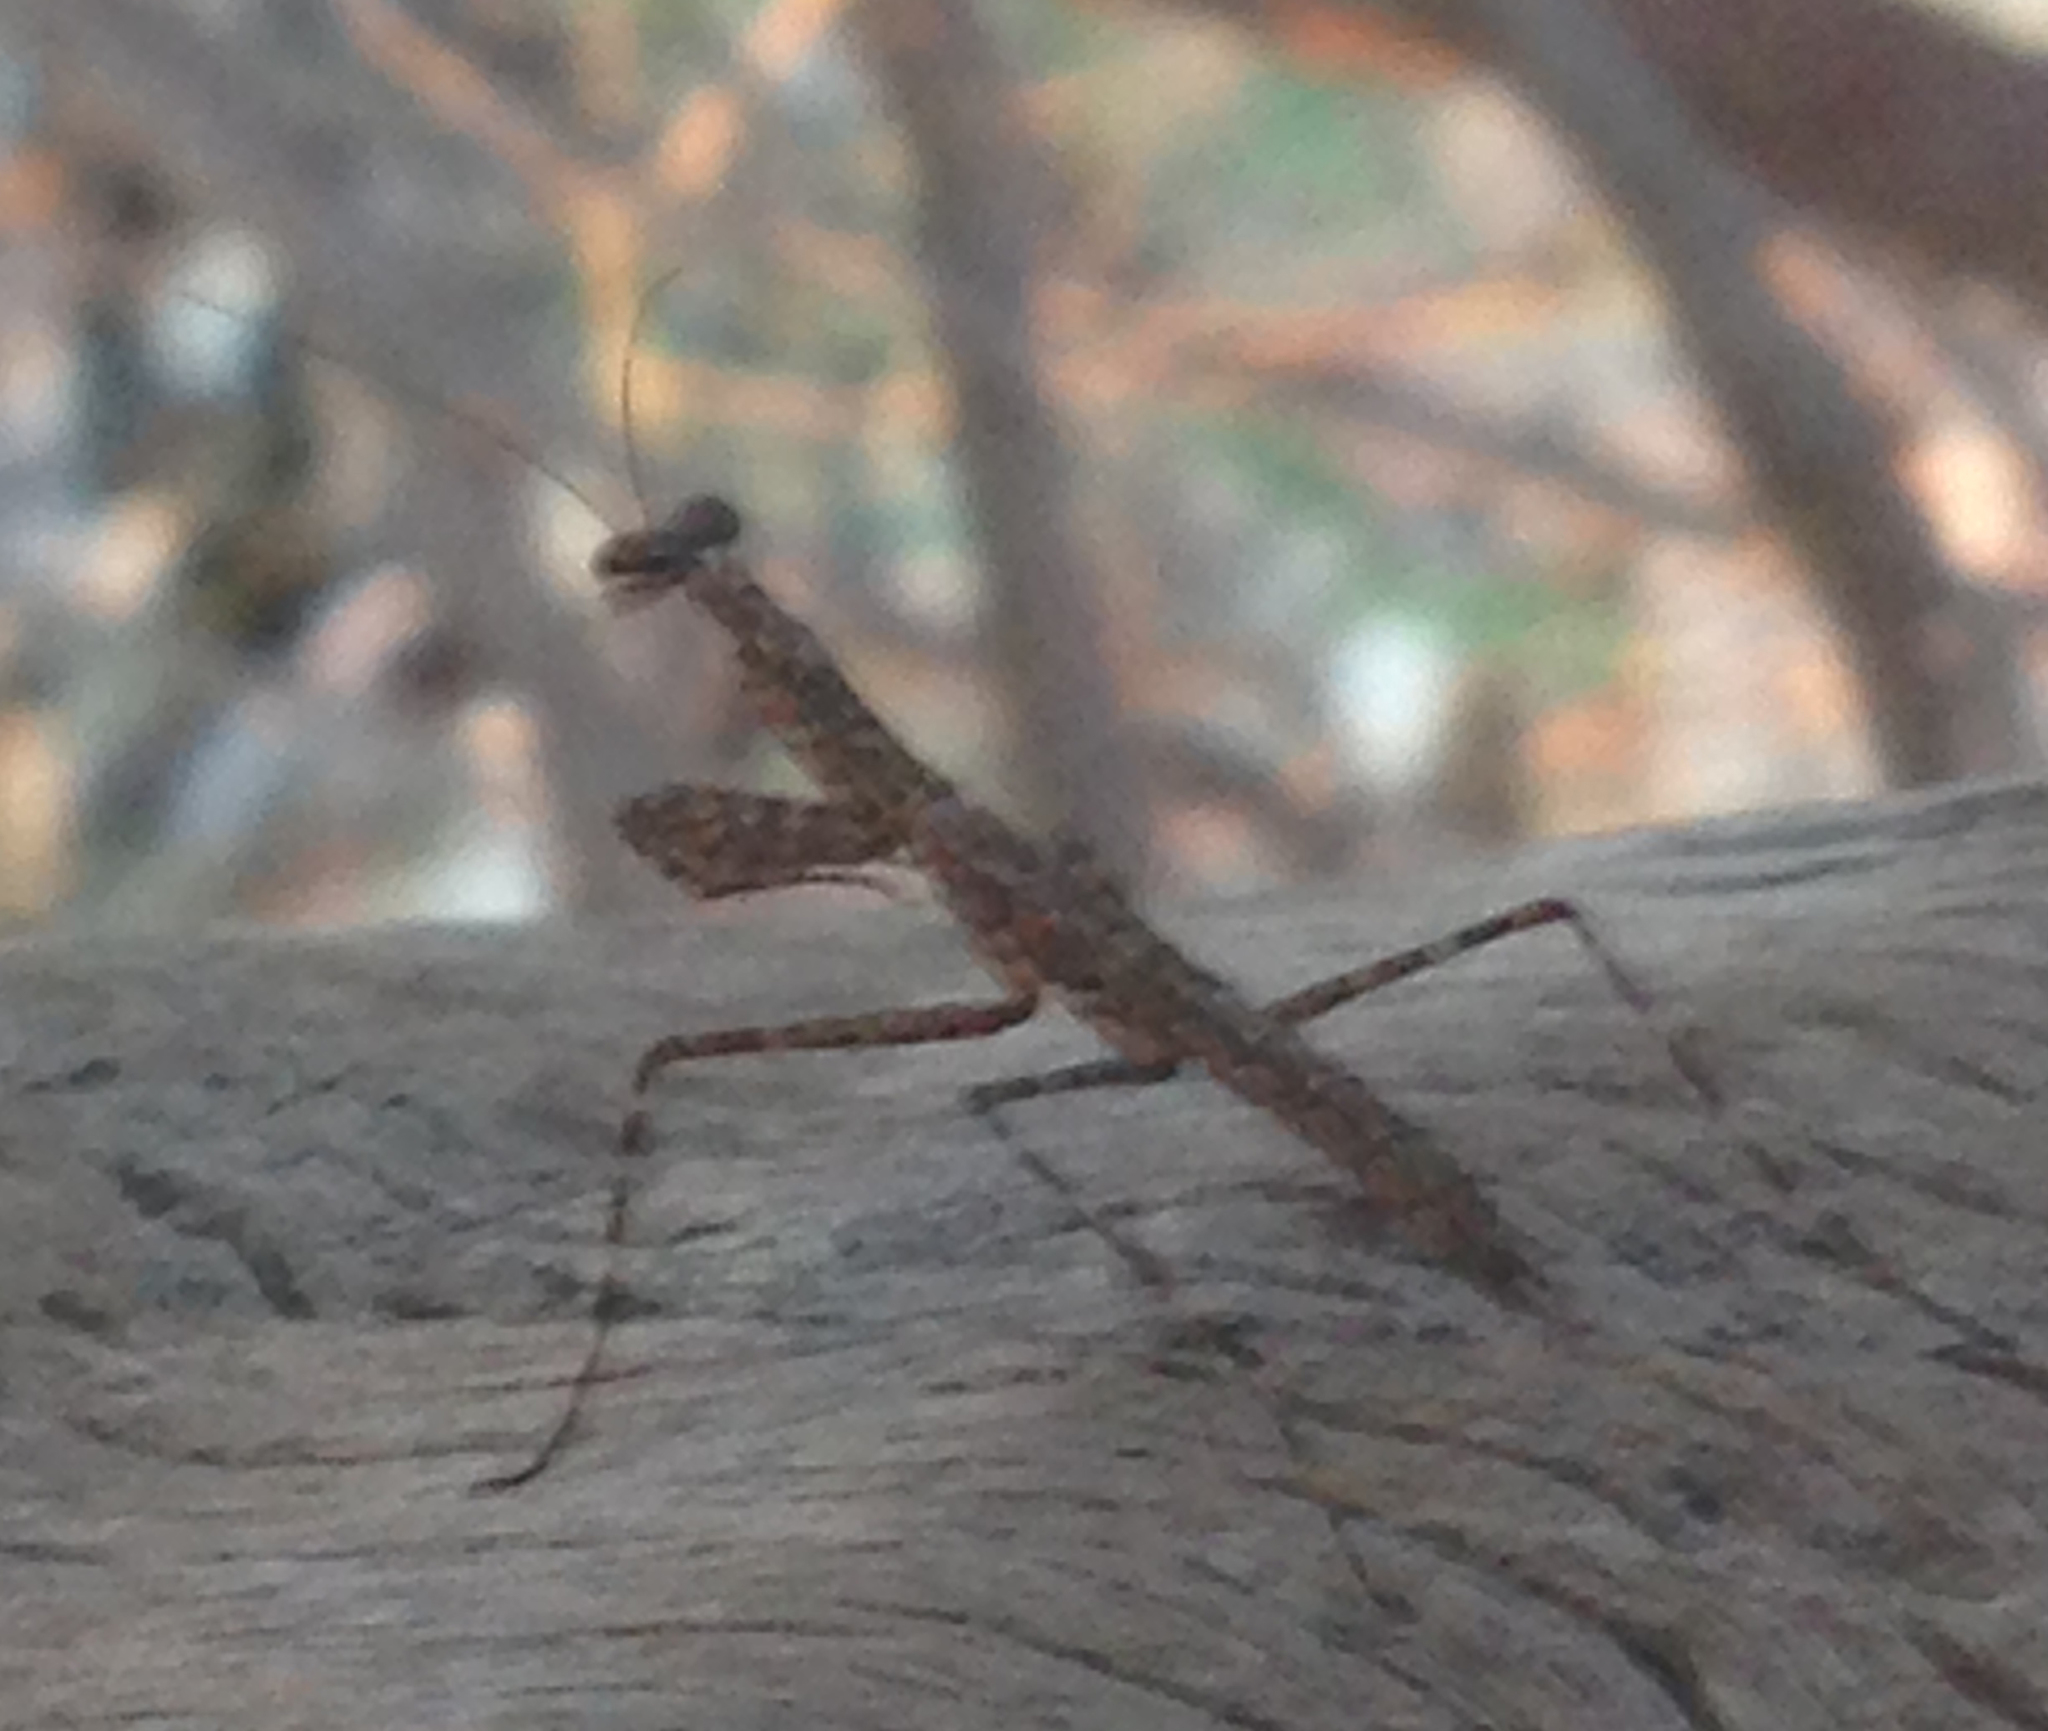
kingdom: Animalia
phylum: Arthropoda
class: Insecta
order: Mantodea
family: Nanomantidae
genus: Ciulfina
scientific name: Ciulfina baldersoni
